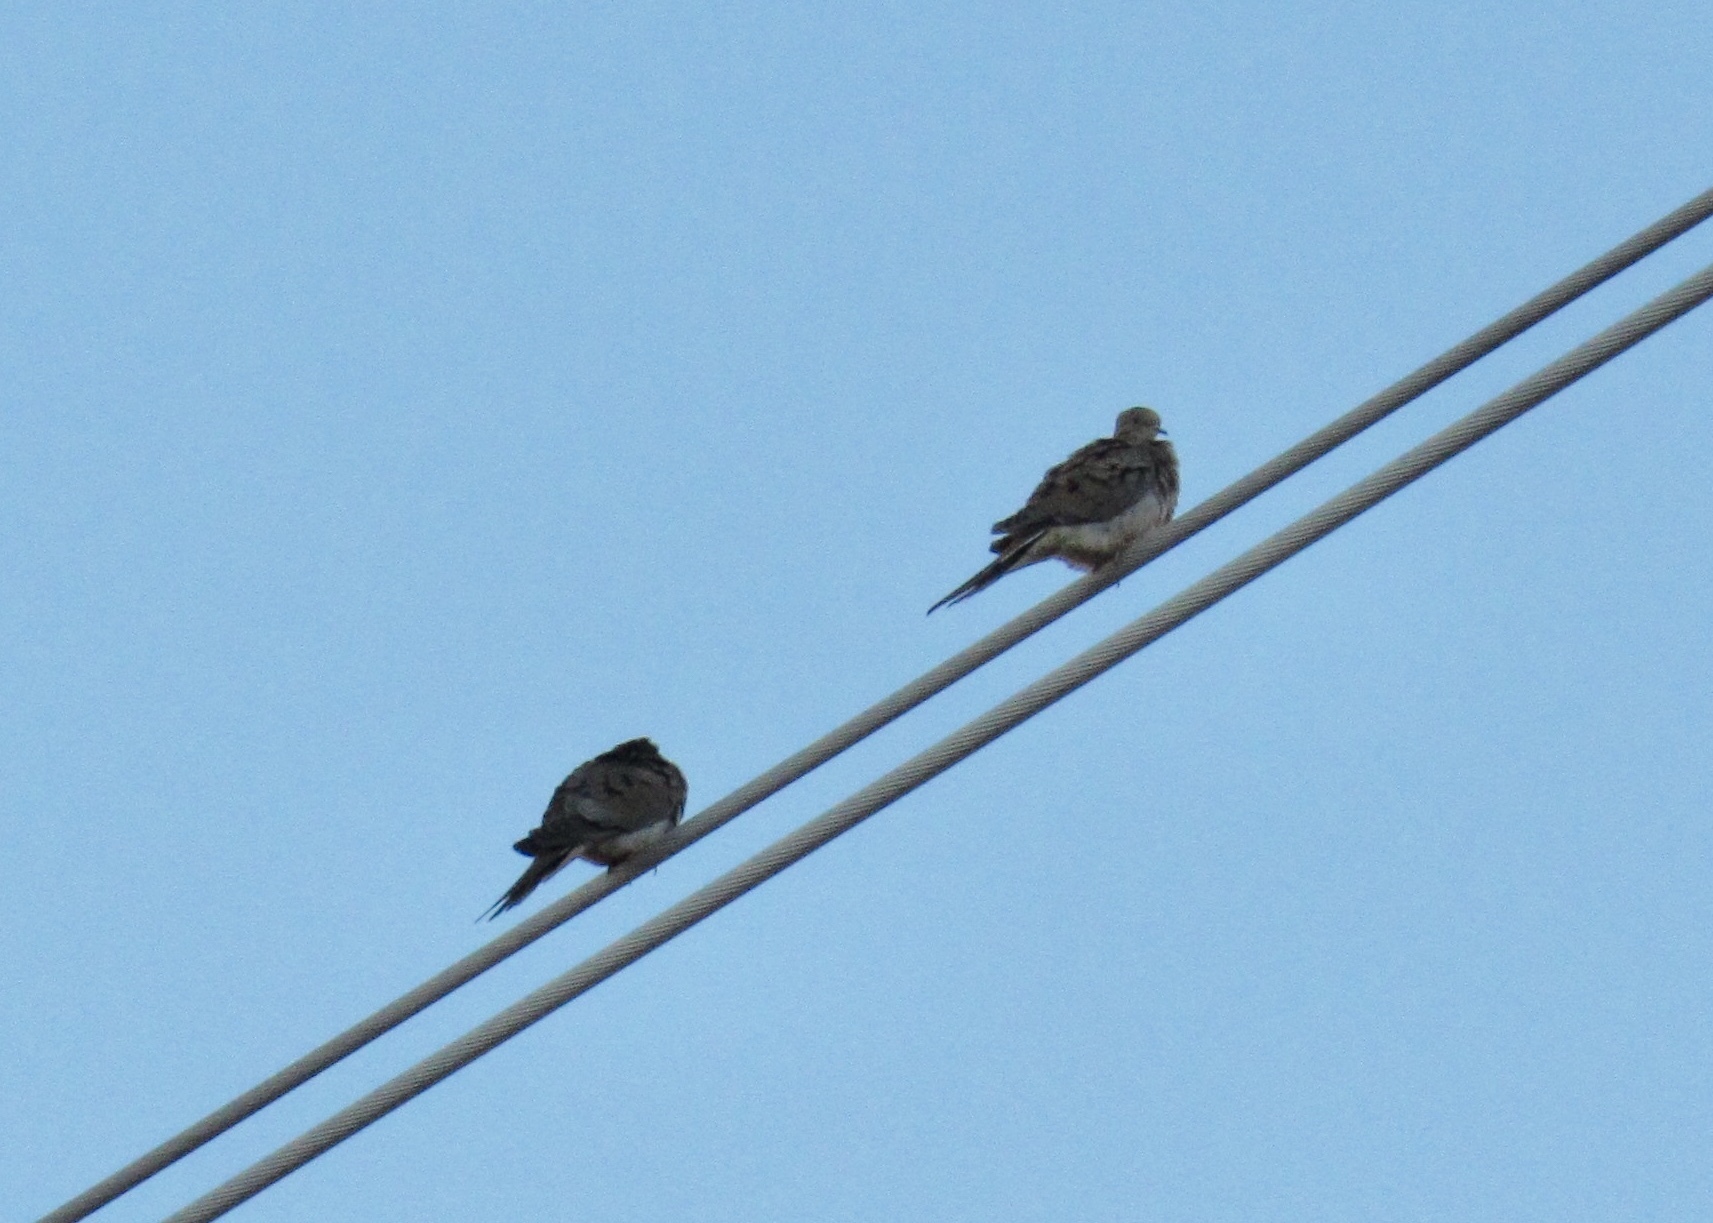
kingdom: Animalia
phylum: Chordata
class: Aves
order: Columbiformes
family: Columbidae
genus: Zenaida
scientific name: Zenaida macroura
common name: Mourning dove
